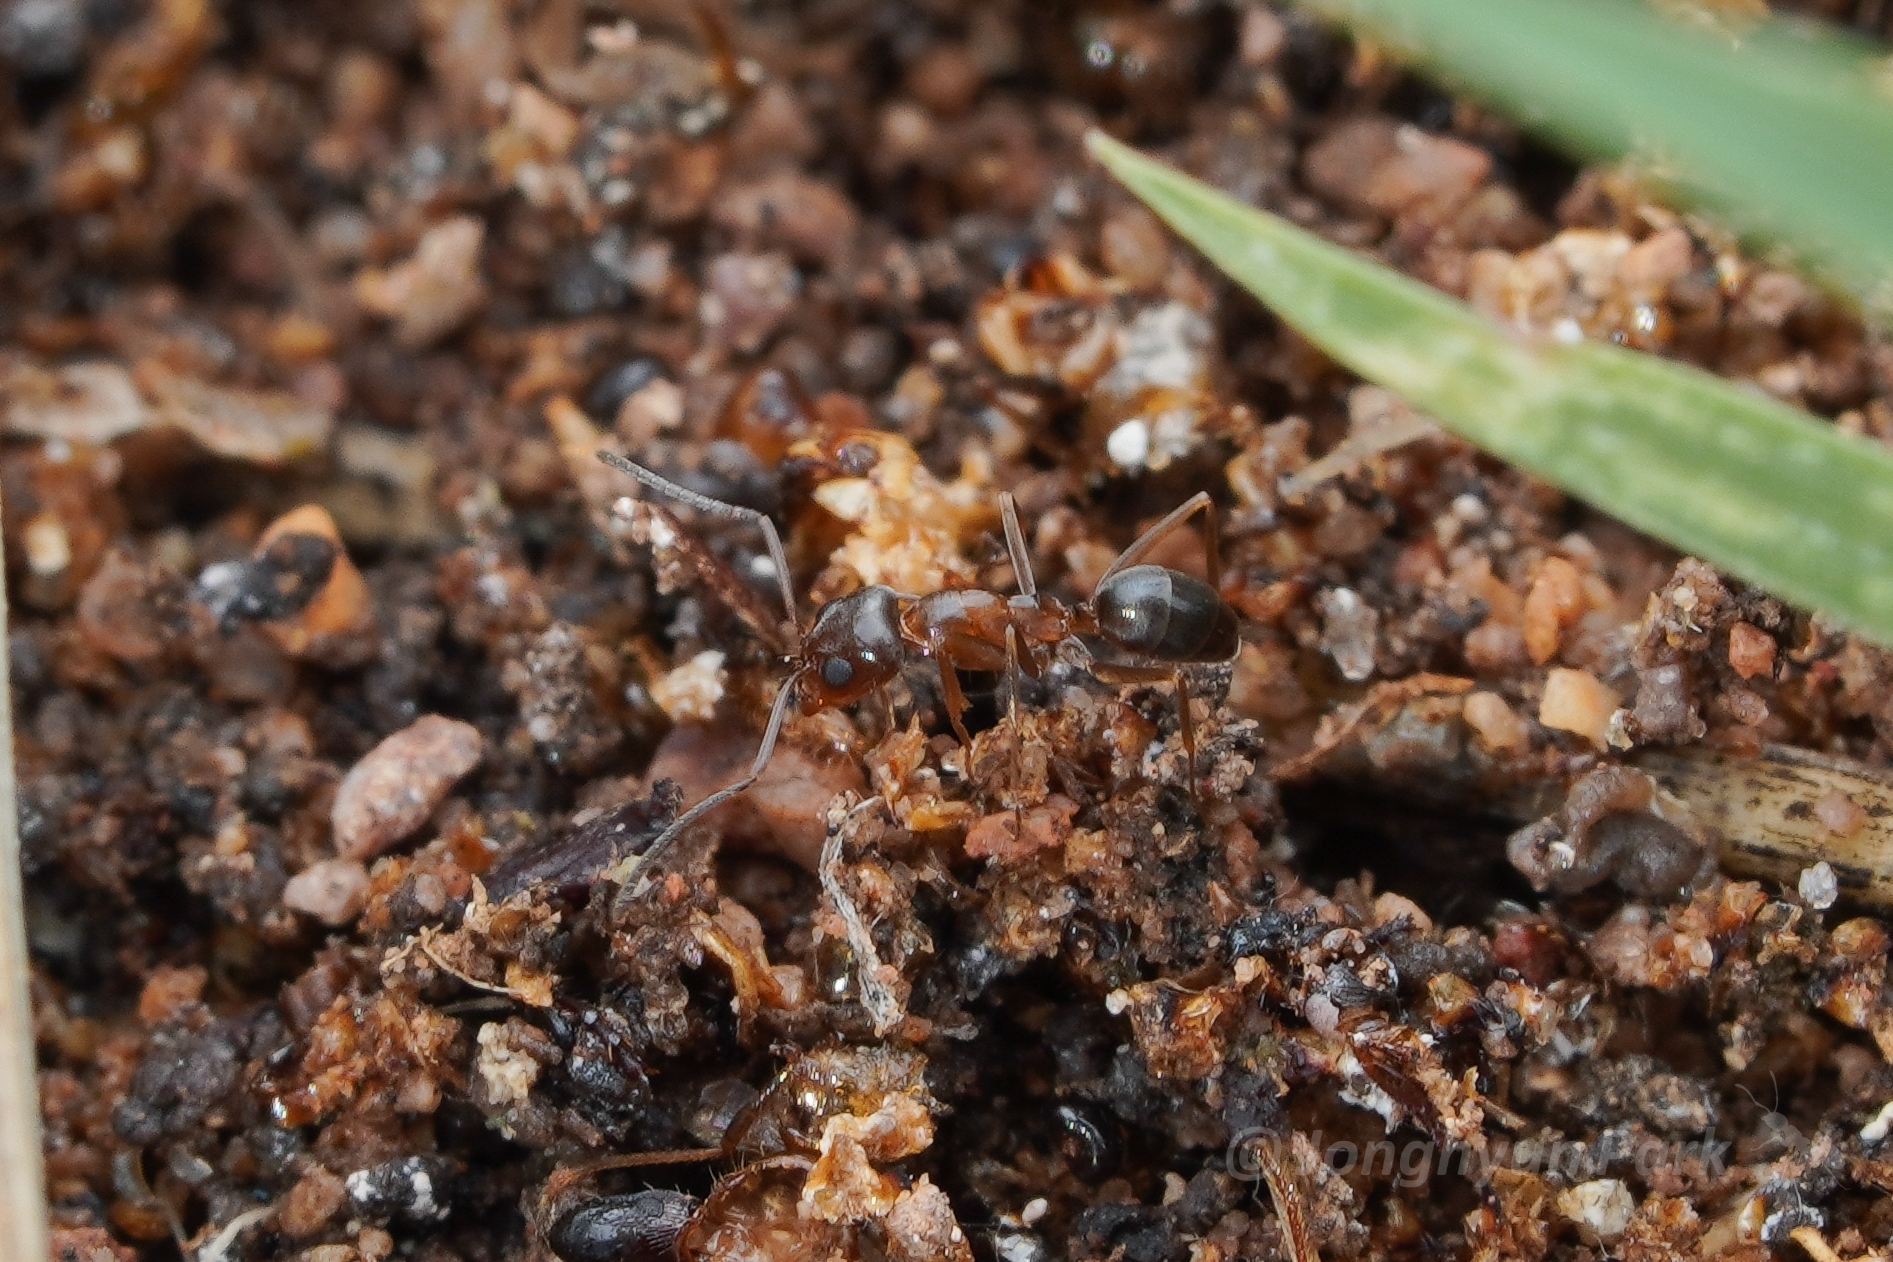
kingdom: Animalia
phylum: Arthropoda
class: Insecta
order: Hymenoptera
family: Formicidae
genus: Dorymyrmex
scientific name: Dorymyrmex
